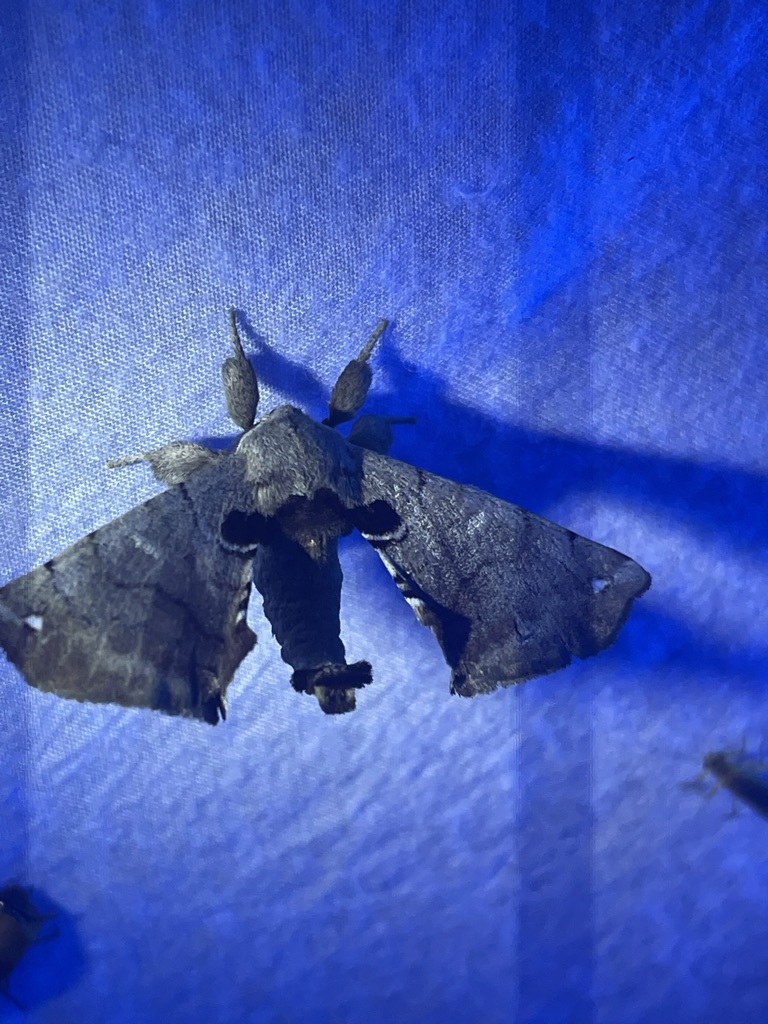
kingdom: Animalia
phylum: Arthropoda
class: Insecta
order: Lepidoptera
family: Apatelodidae
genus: Hygrochroa
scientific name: Hygrochroa Apatelodes torrefacta
